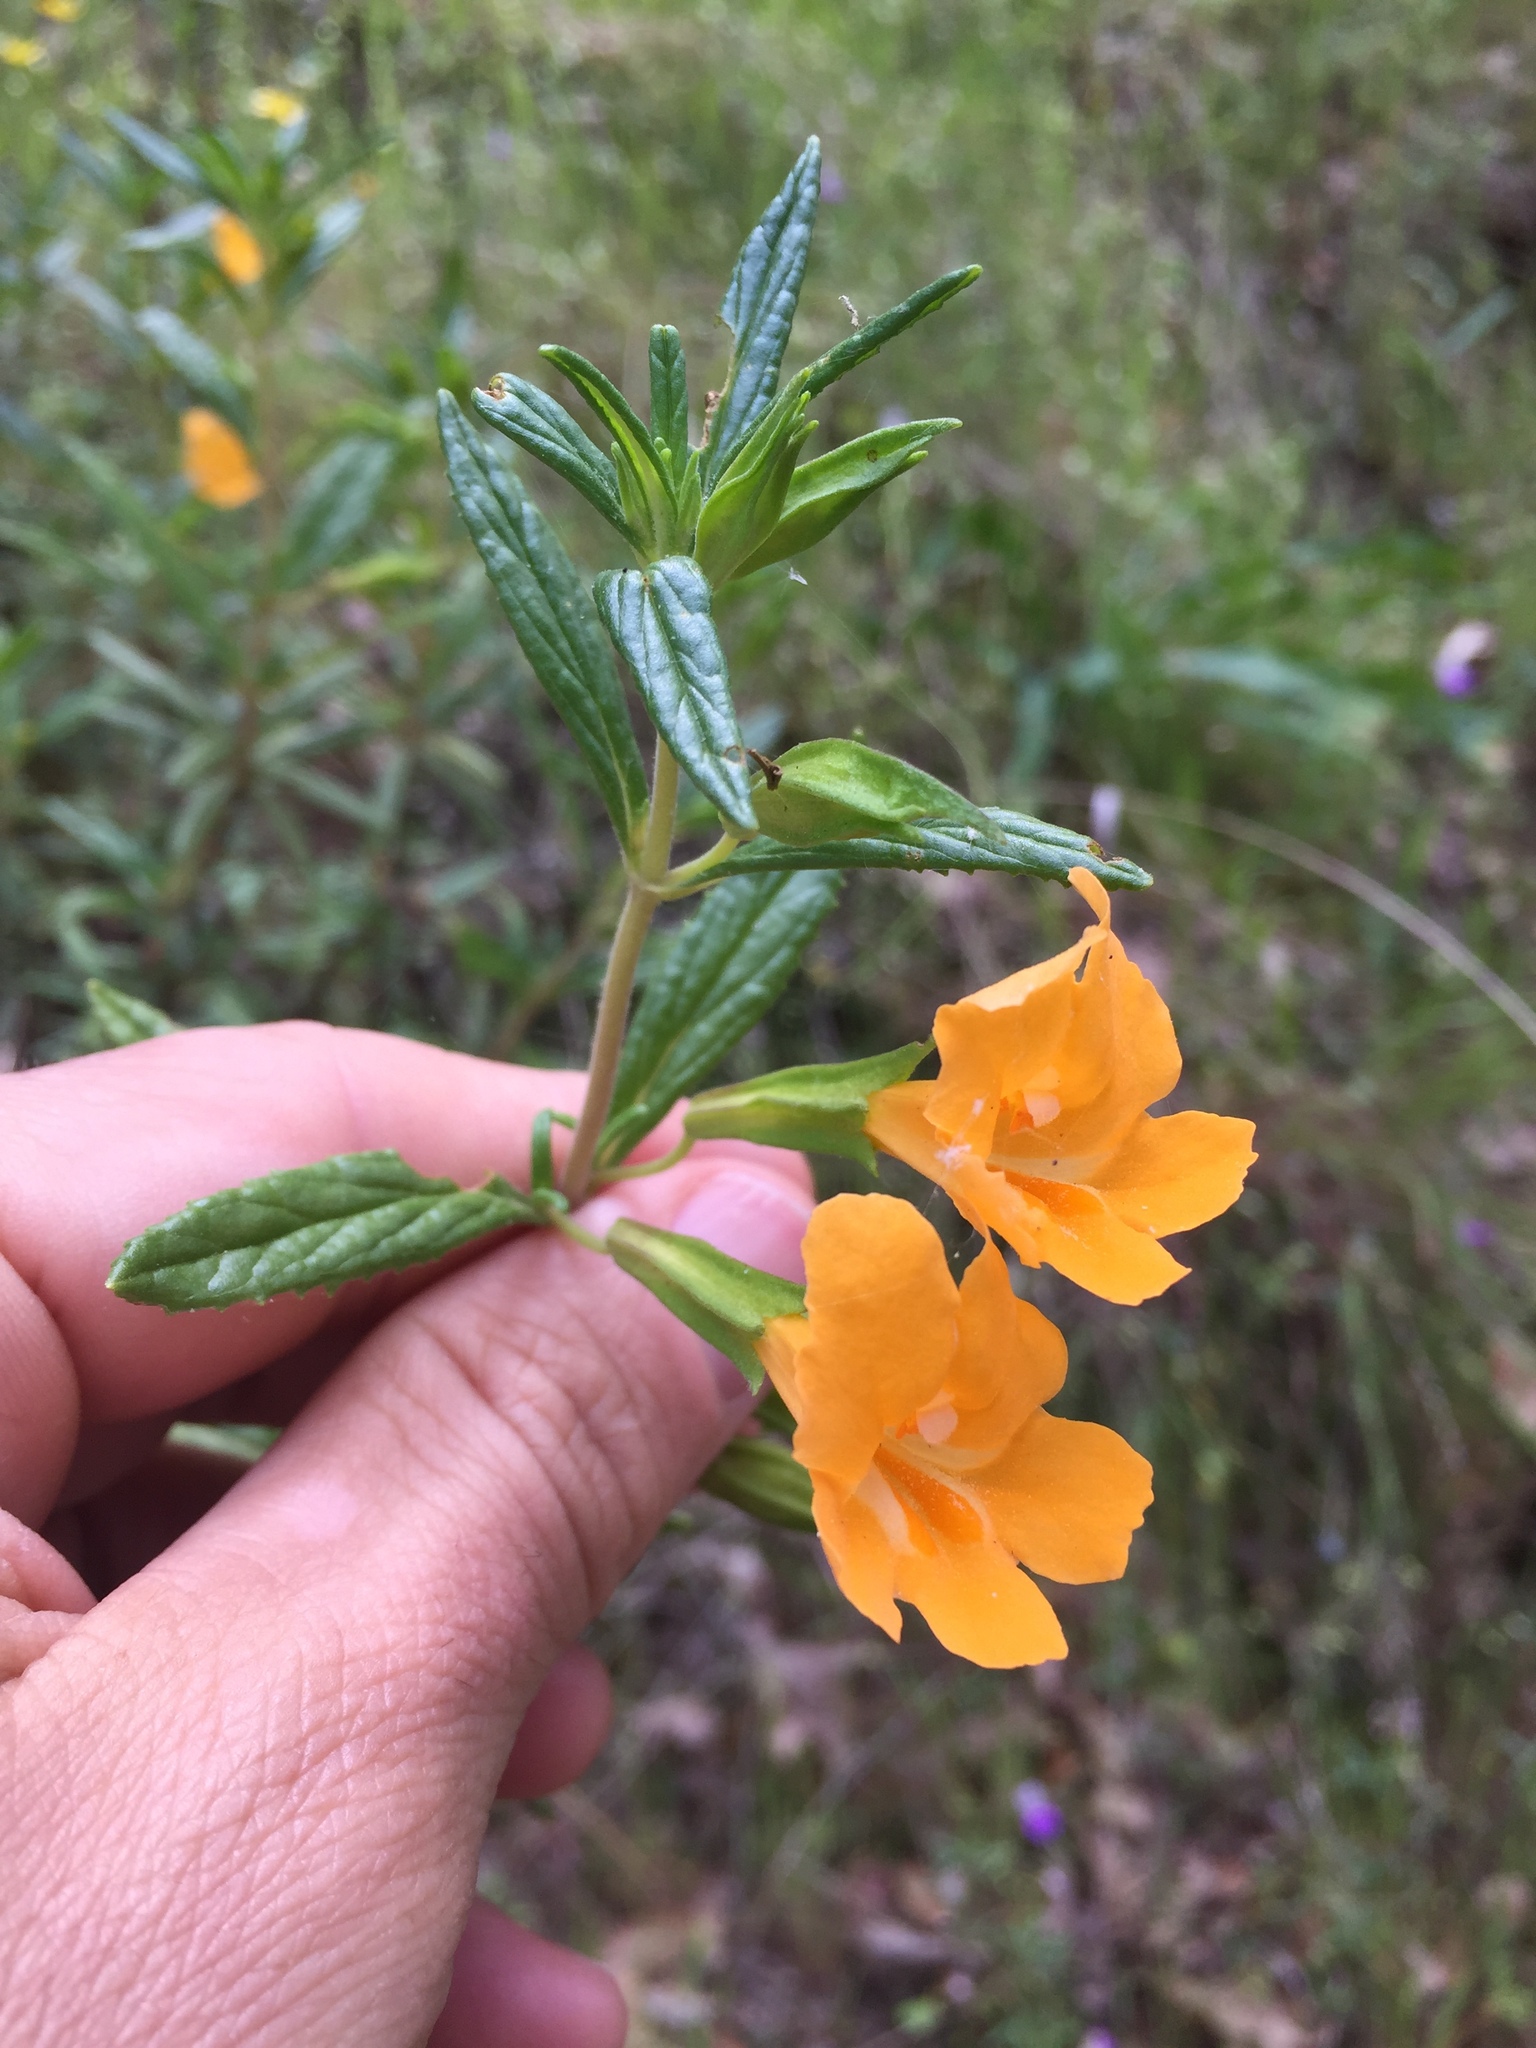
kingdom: Plantae
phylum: Tracheophyta
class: Magnoliopsida
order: Lamiales
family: Phrymaceae
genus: Diplacus
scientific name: Diplacus aurantiacus
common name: Bush monkey-flower
